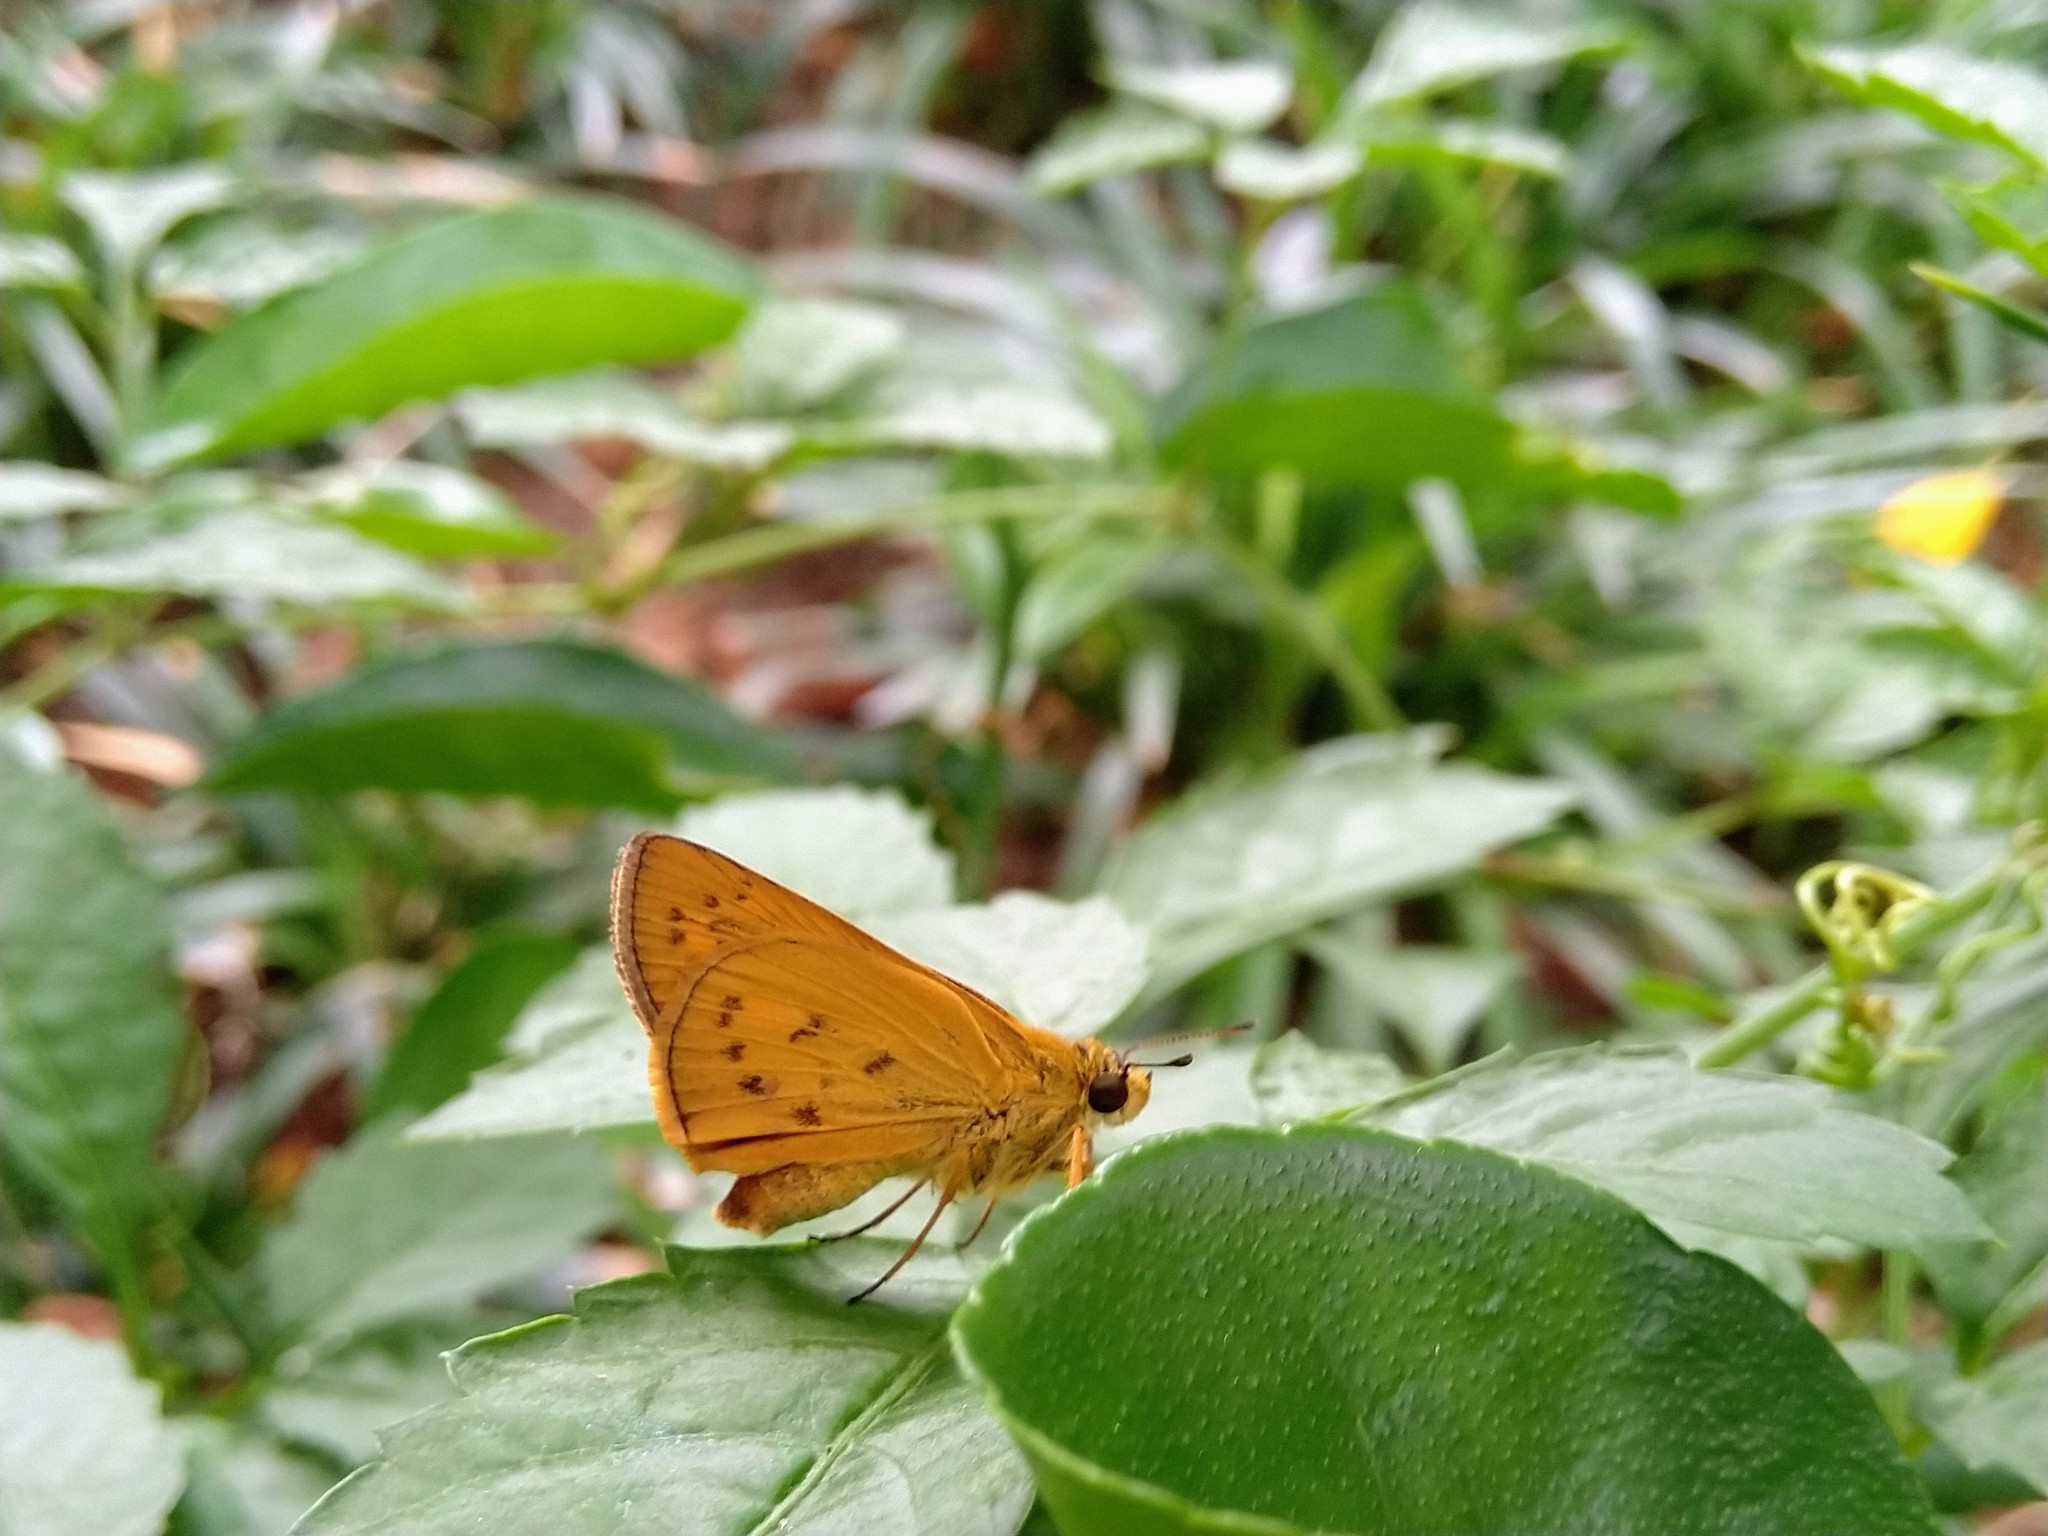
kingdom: Animalia
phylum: Arthropoda
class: Insecta
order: Lepidoptera
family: Hesperiidae
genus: Telicota
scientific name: Telicota bambusae
